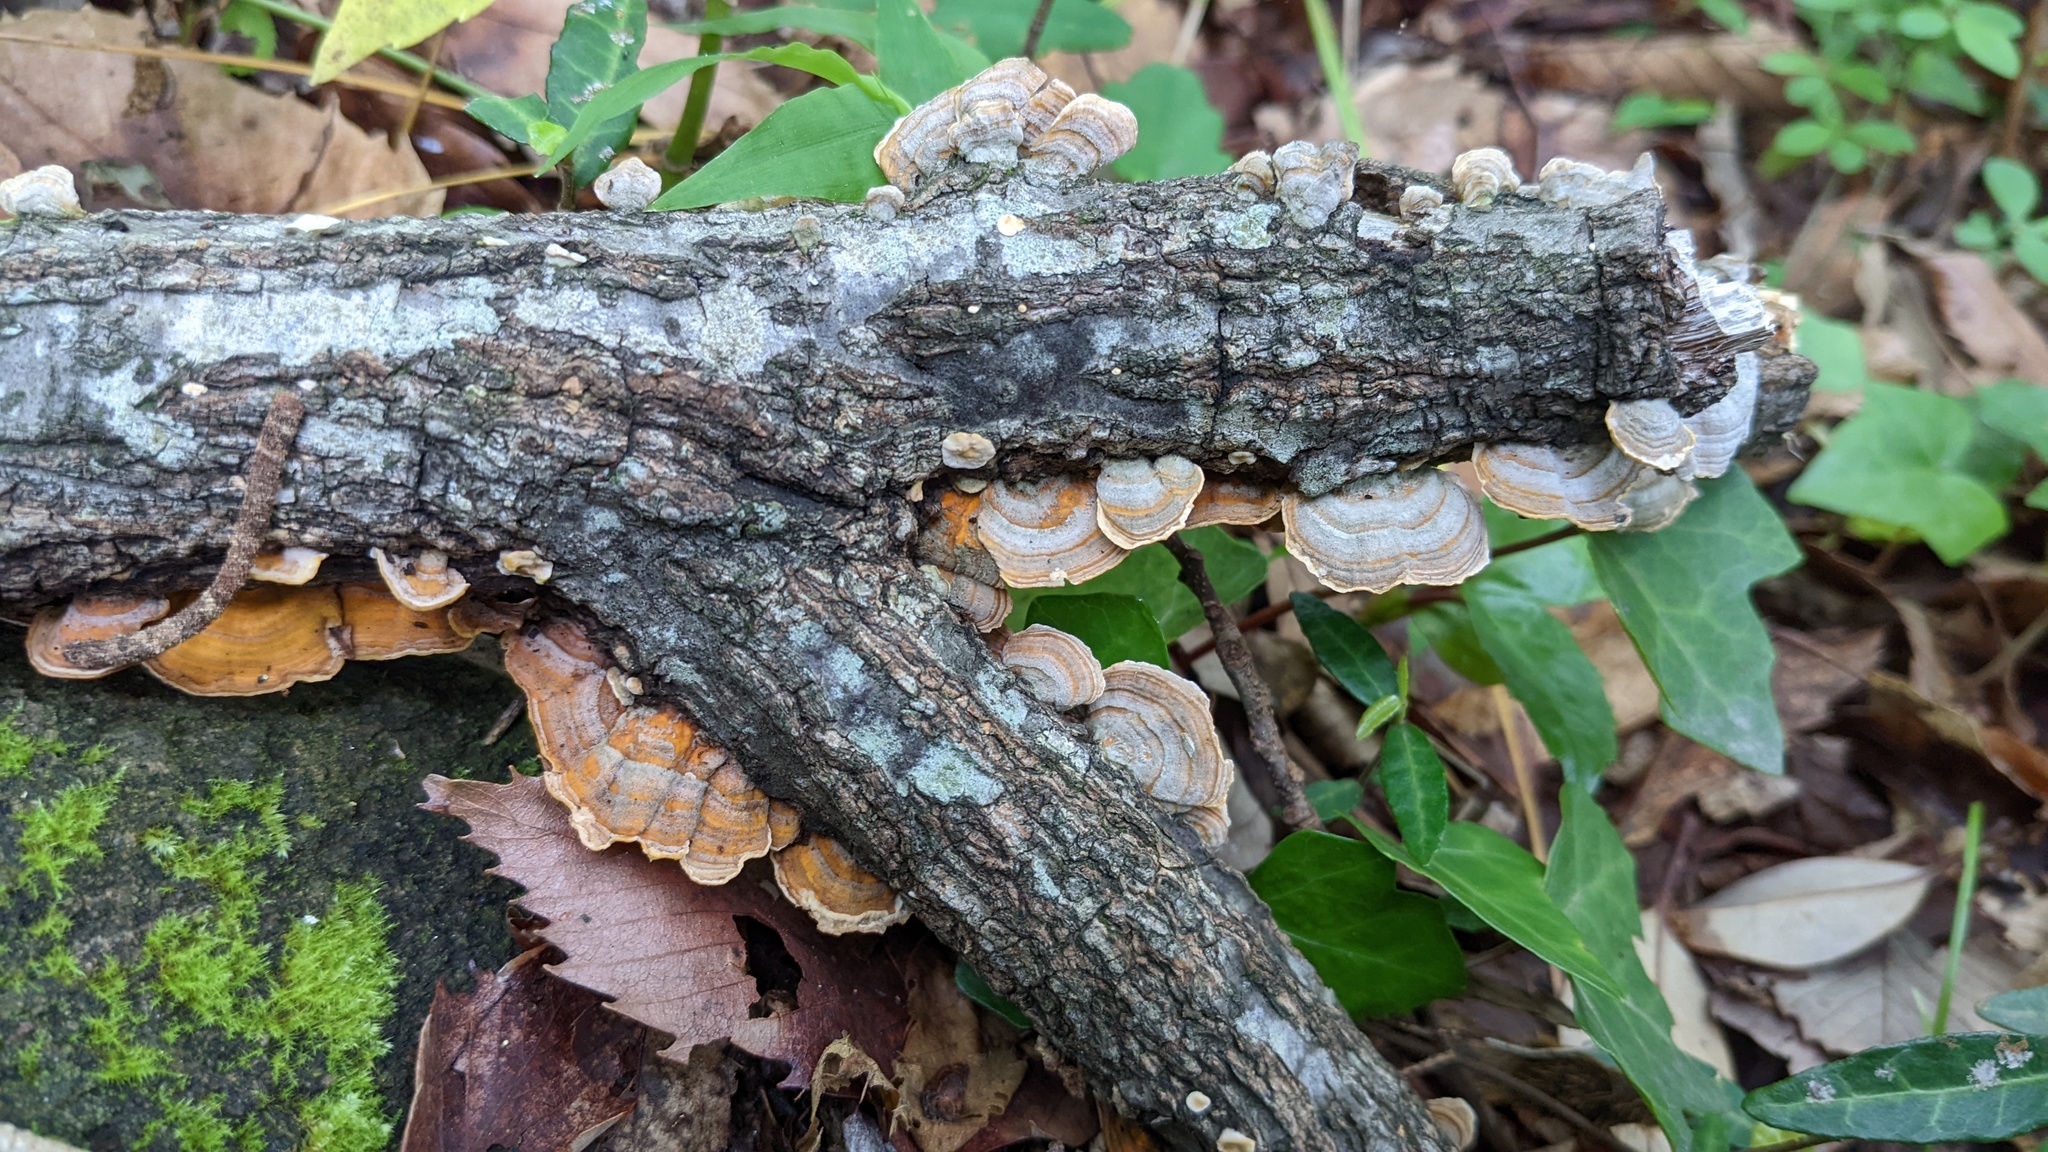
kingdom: Fungi
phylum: Basidiomycota
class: Agaricomycetes
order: Russulales
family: Stereaceae
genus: Stereum
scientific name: Stereum ostrea
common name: False turkeytail
